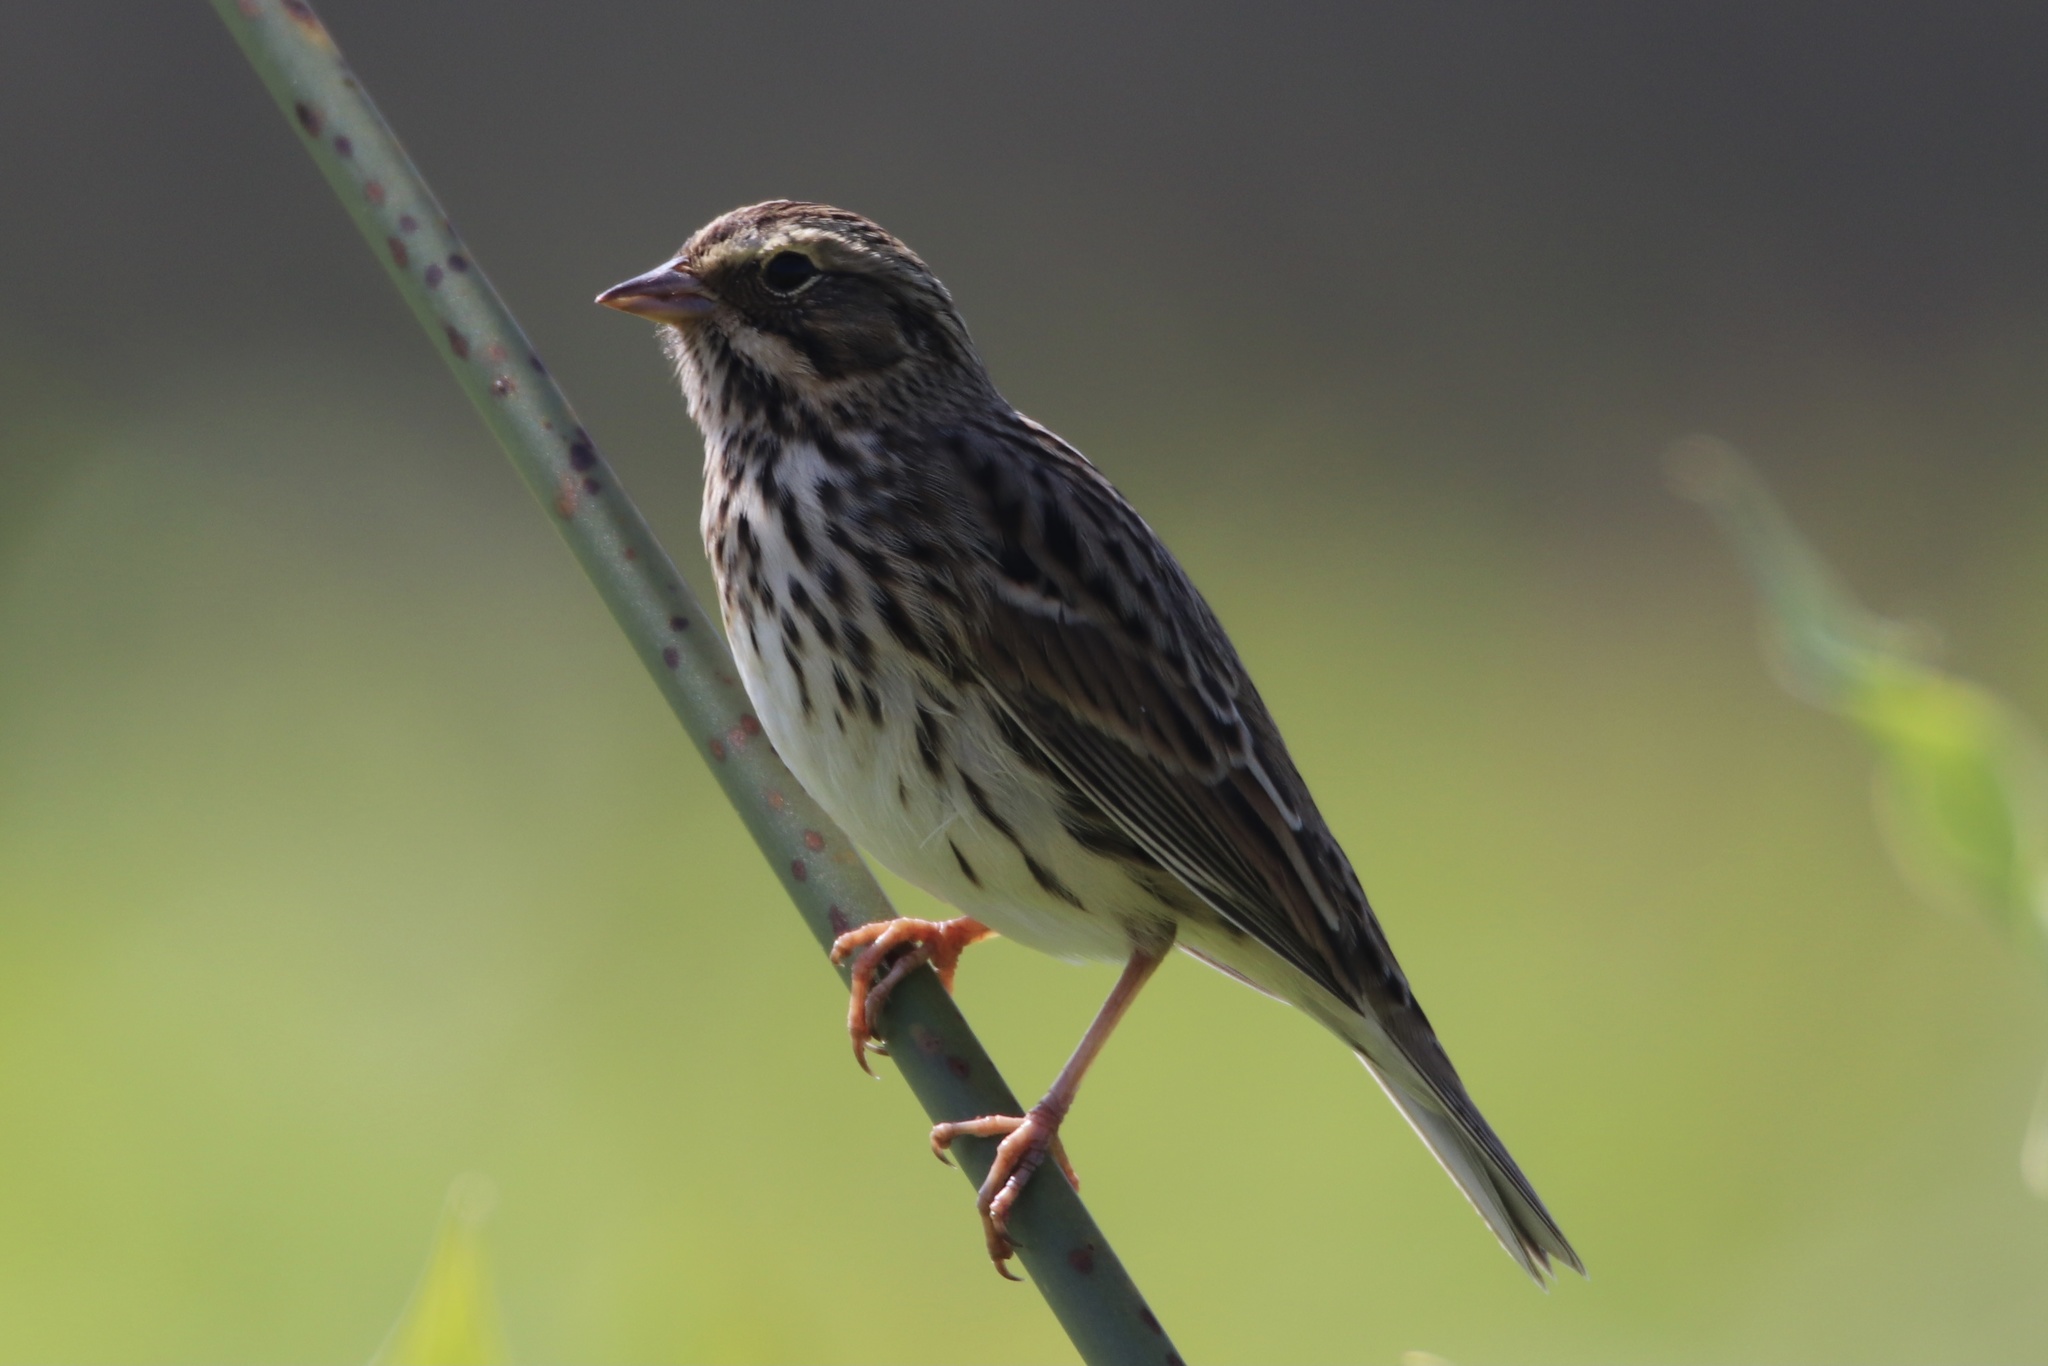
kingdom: Animalia
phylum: Chordata
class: Aves
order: Passeriformes
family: Passerellidae
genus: Passerculus
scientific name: Passerculus sandwichensis
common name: Savannah sparrow
